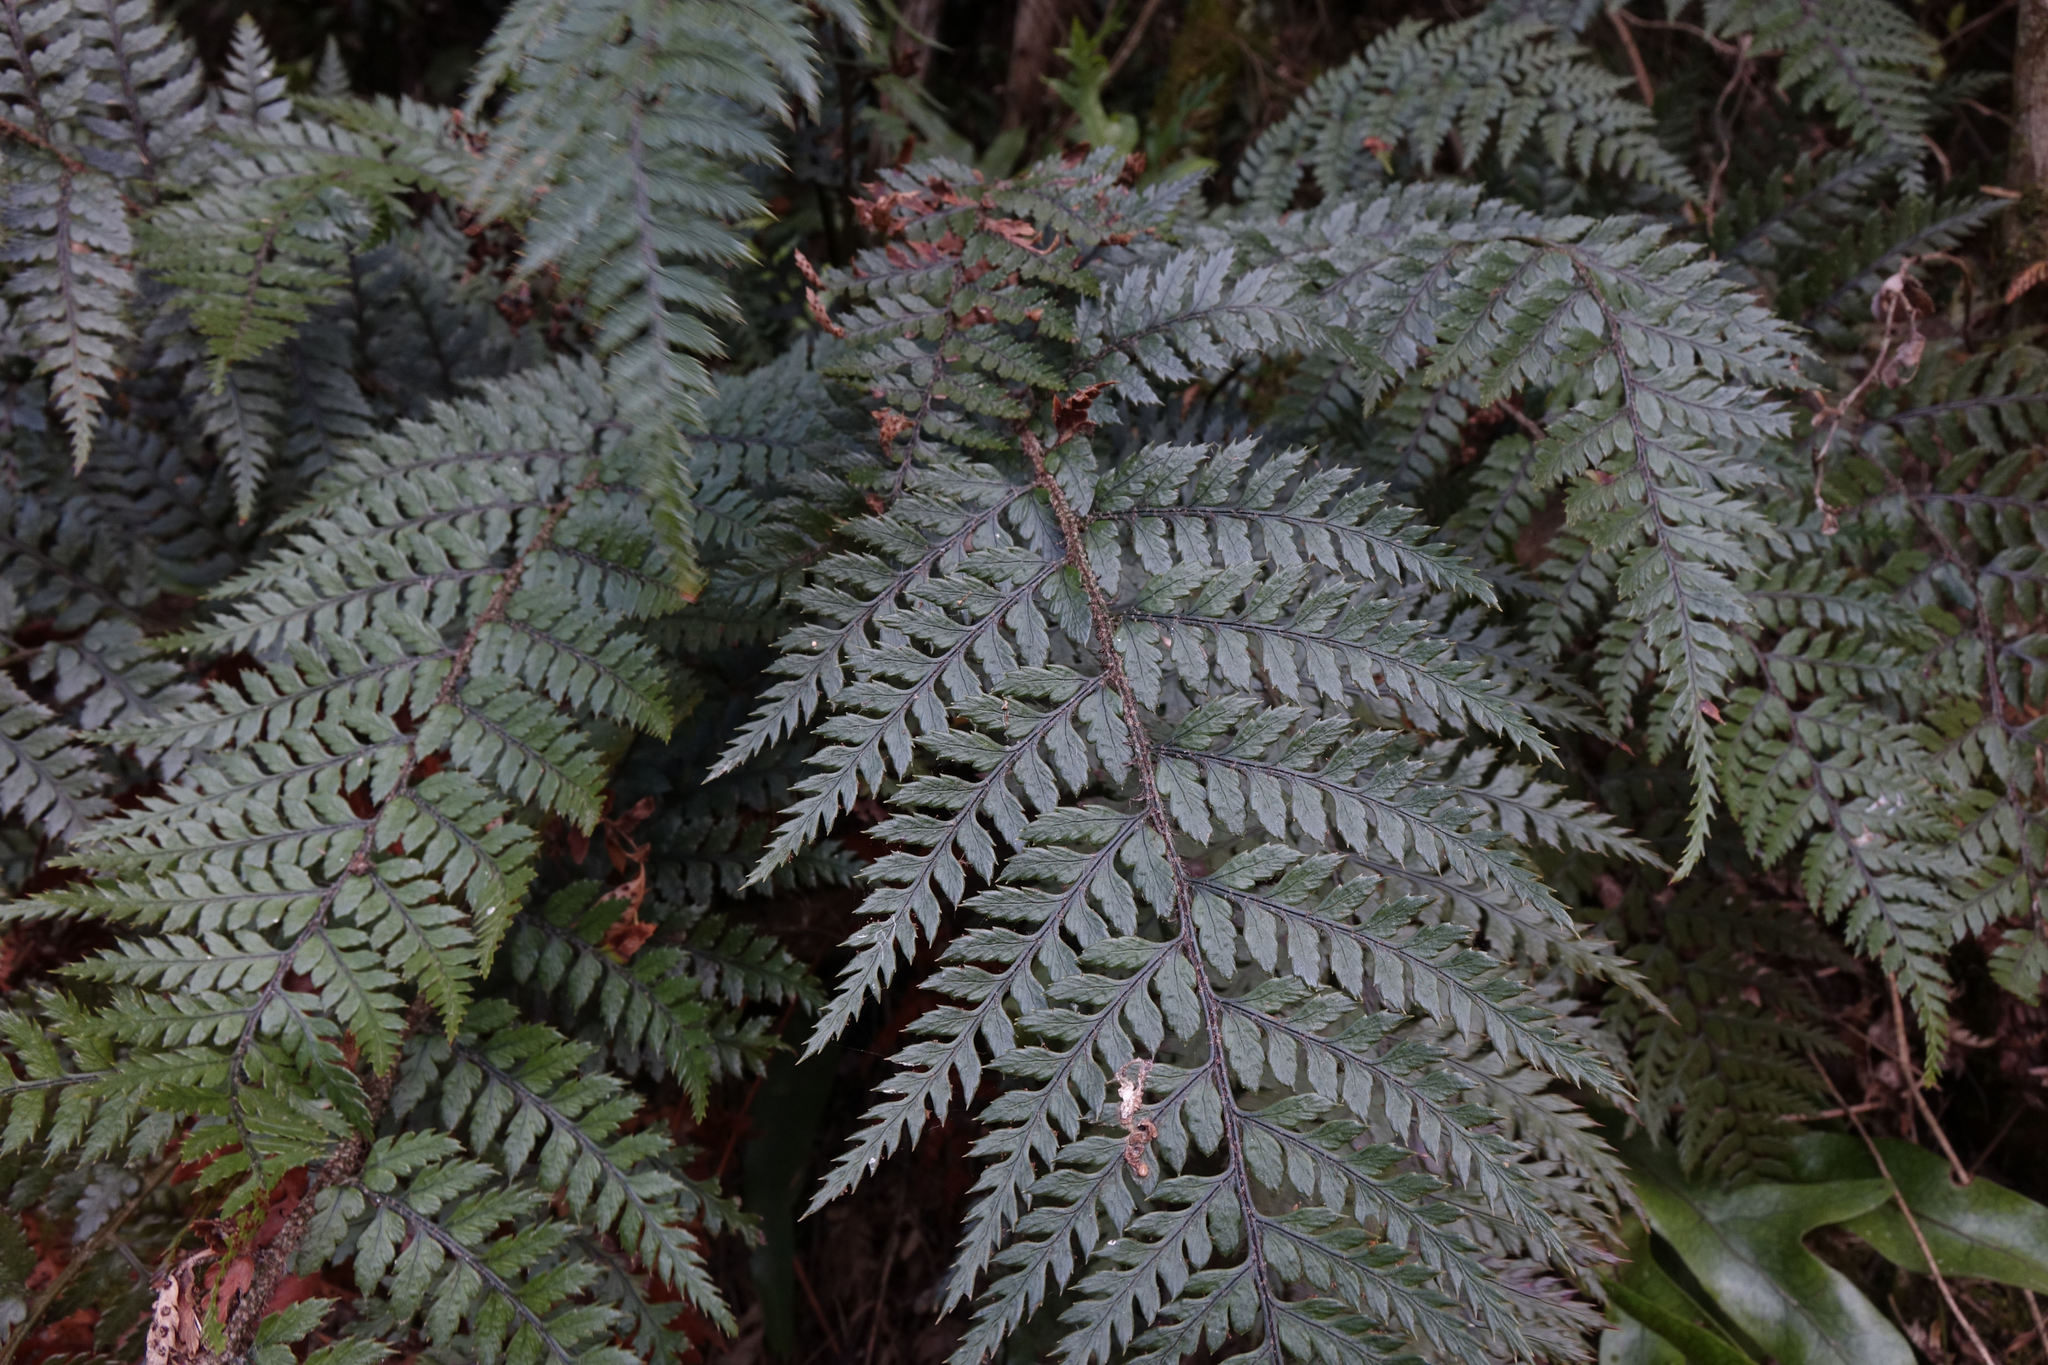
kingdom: Plantae
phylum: Tracheophyta
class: Polypodiopsida
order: Polypodiales
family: Dryopteridaceae
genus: Polystichum
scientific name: Polystichum neozelandicum
